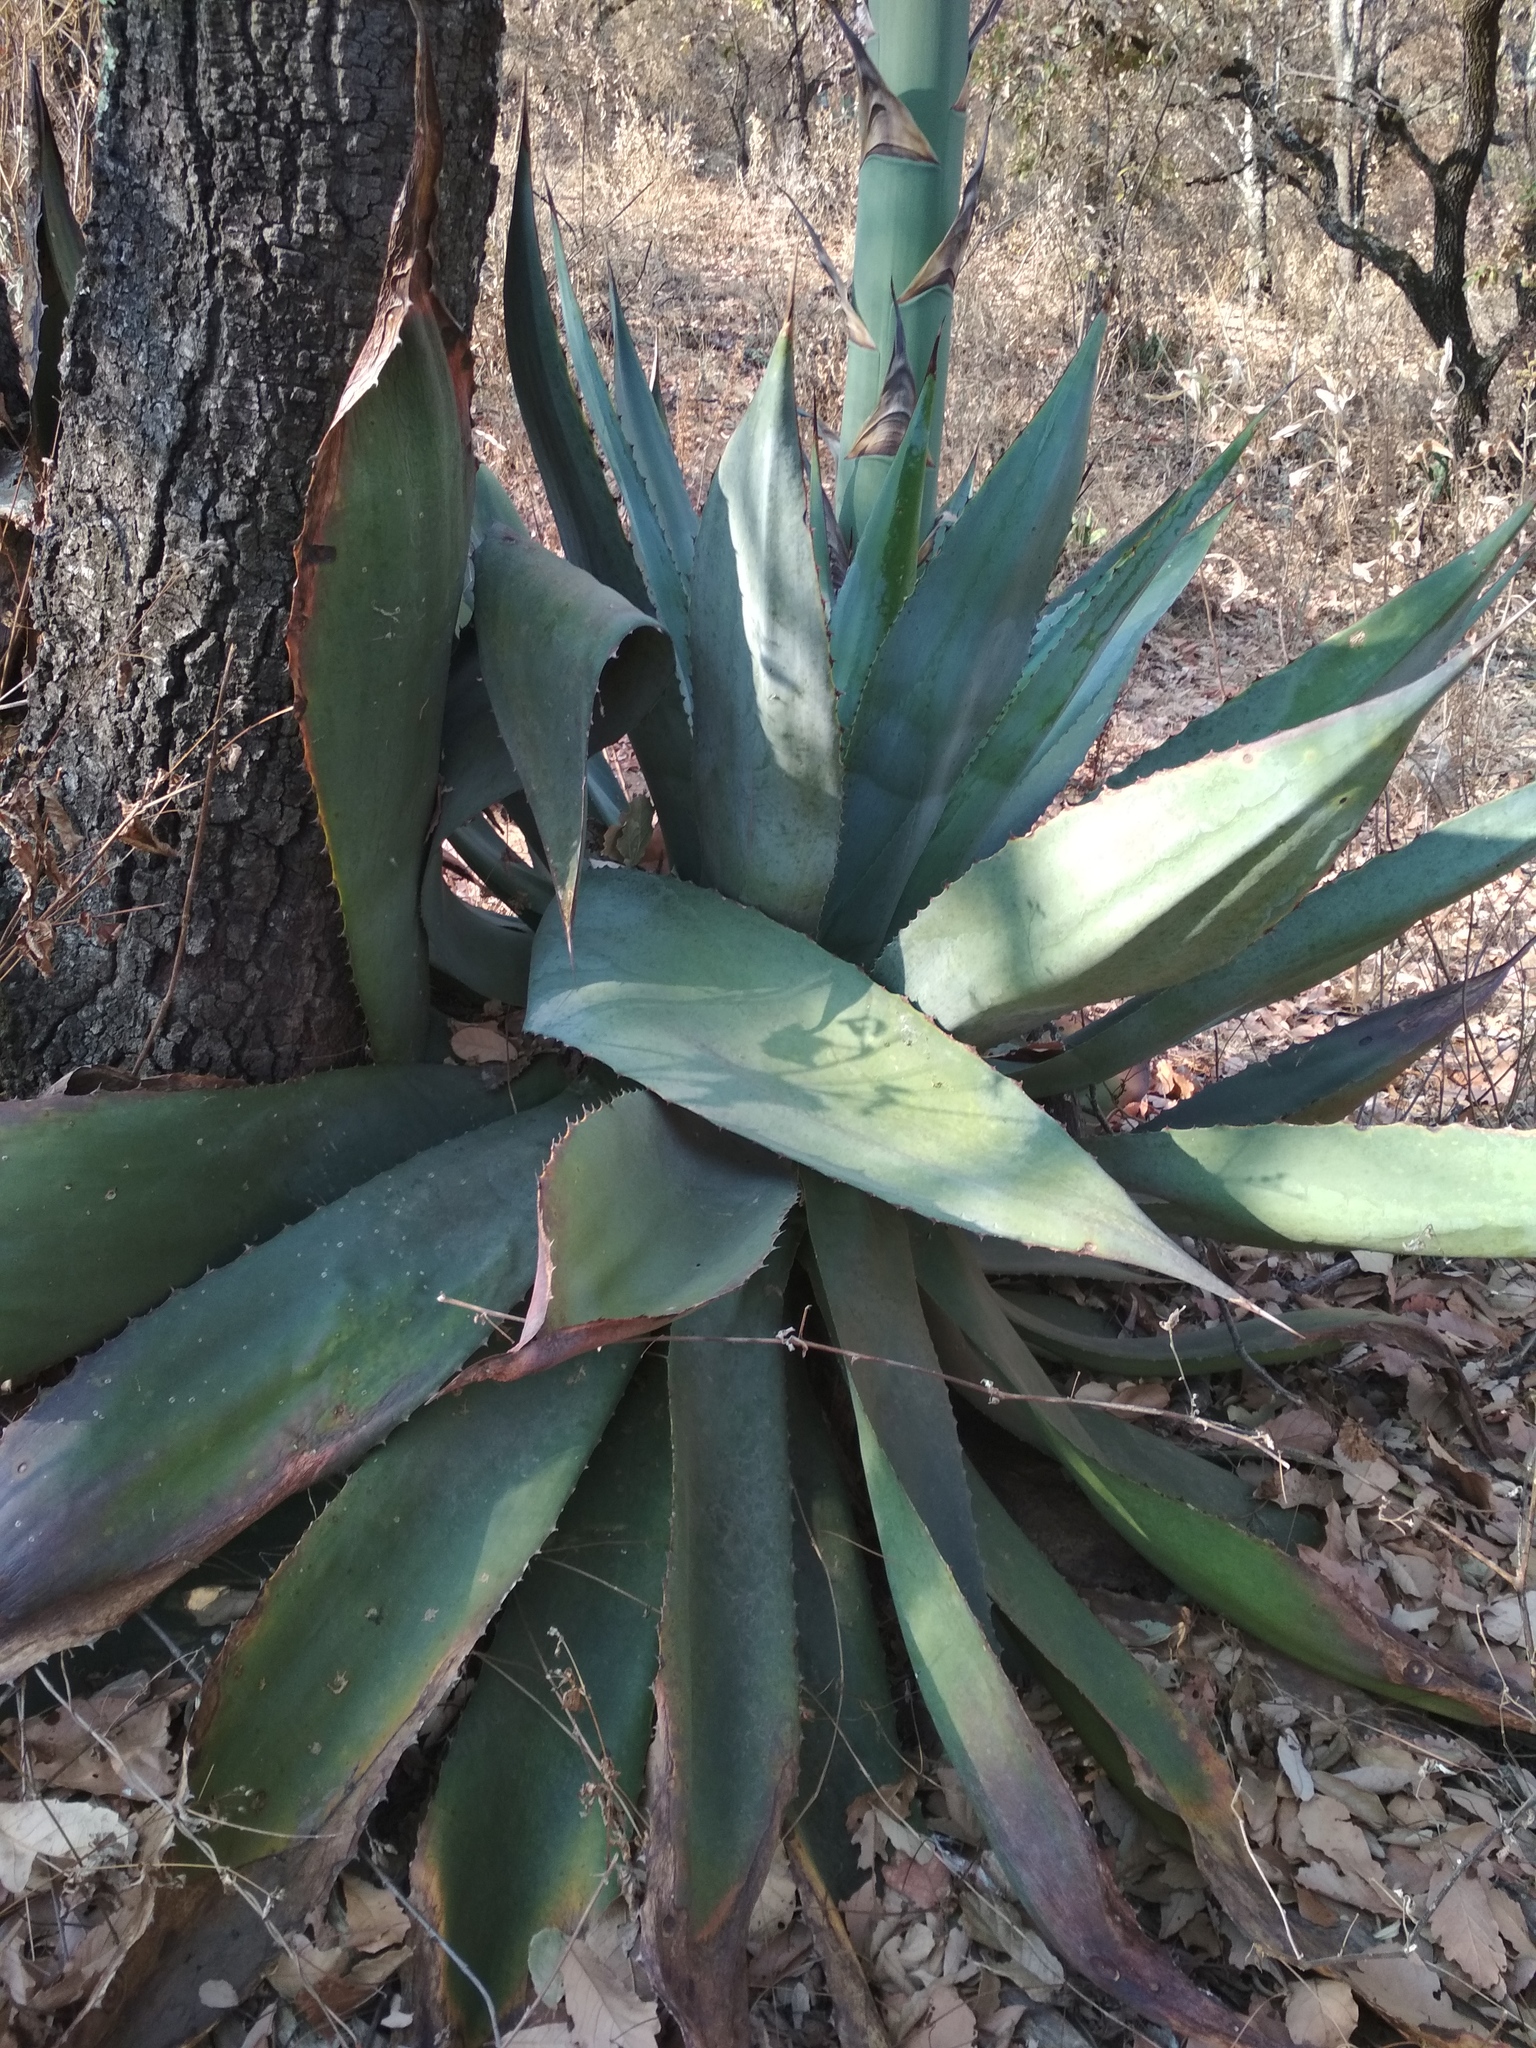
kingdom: Plantae
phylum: Tracheophyta
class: Liliopsida
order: Asparagales
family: Asparagaceae
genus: Agave
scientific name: Agave inaequidens
